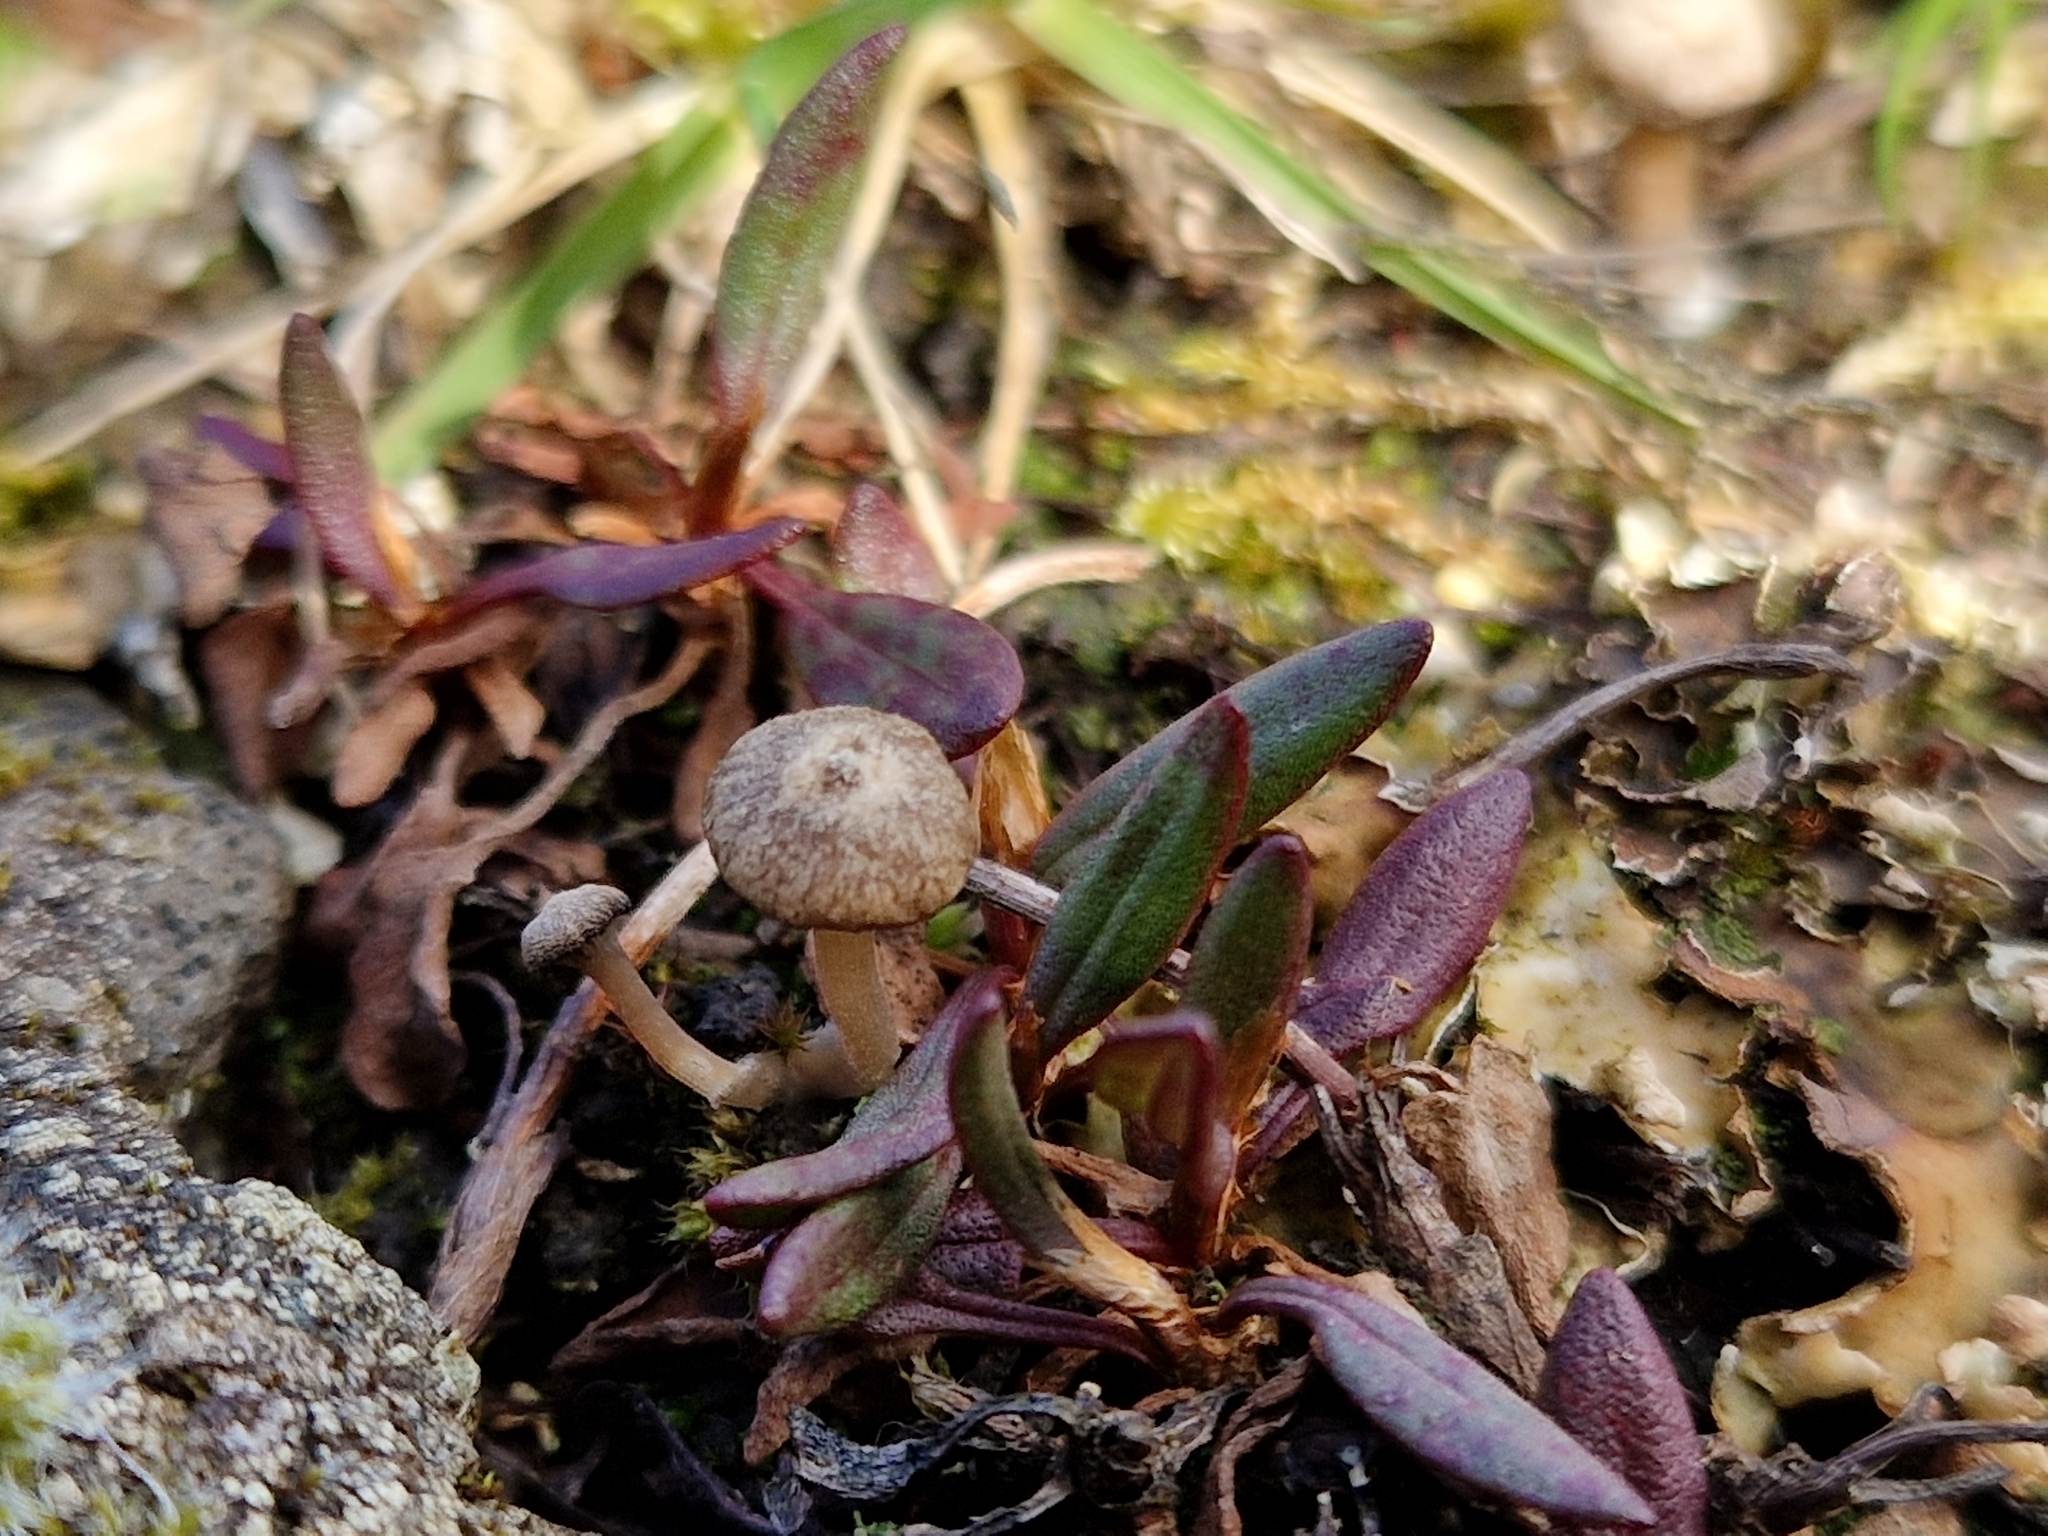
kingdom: Fungi
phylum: Basidiomycota
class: Agaricomycetes
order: Agaricales
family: Hygrophoraceae
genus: Arrhenia
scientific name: Arrhenia peltigerina
